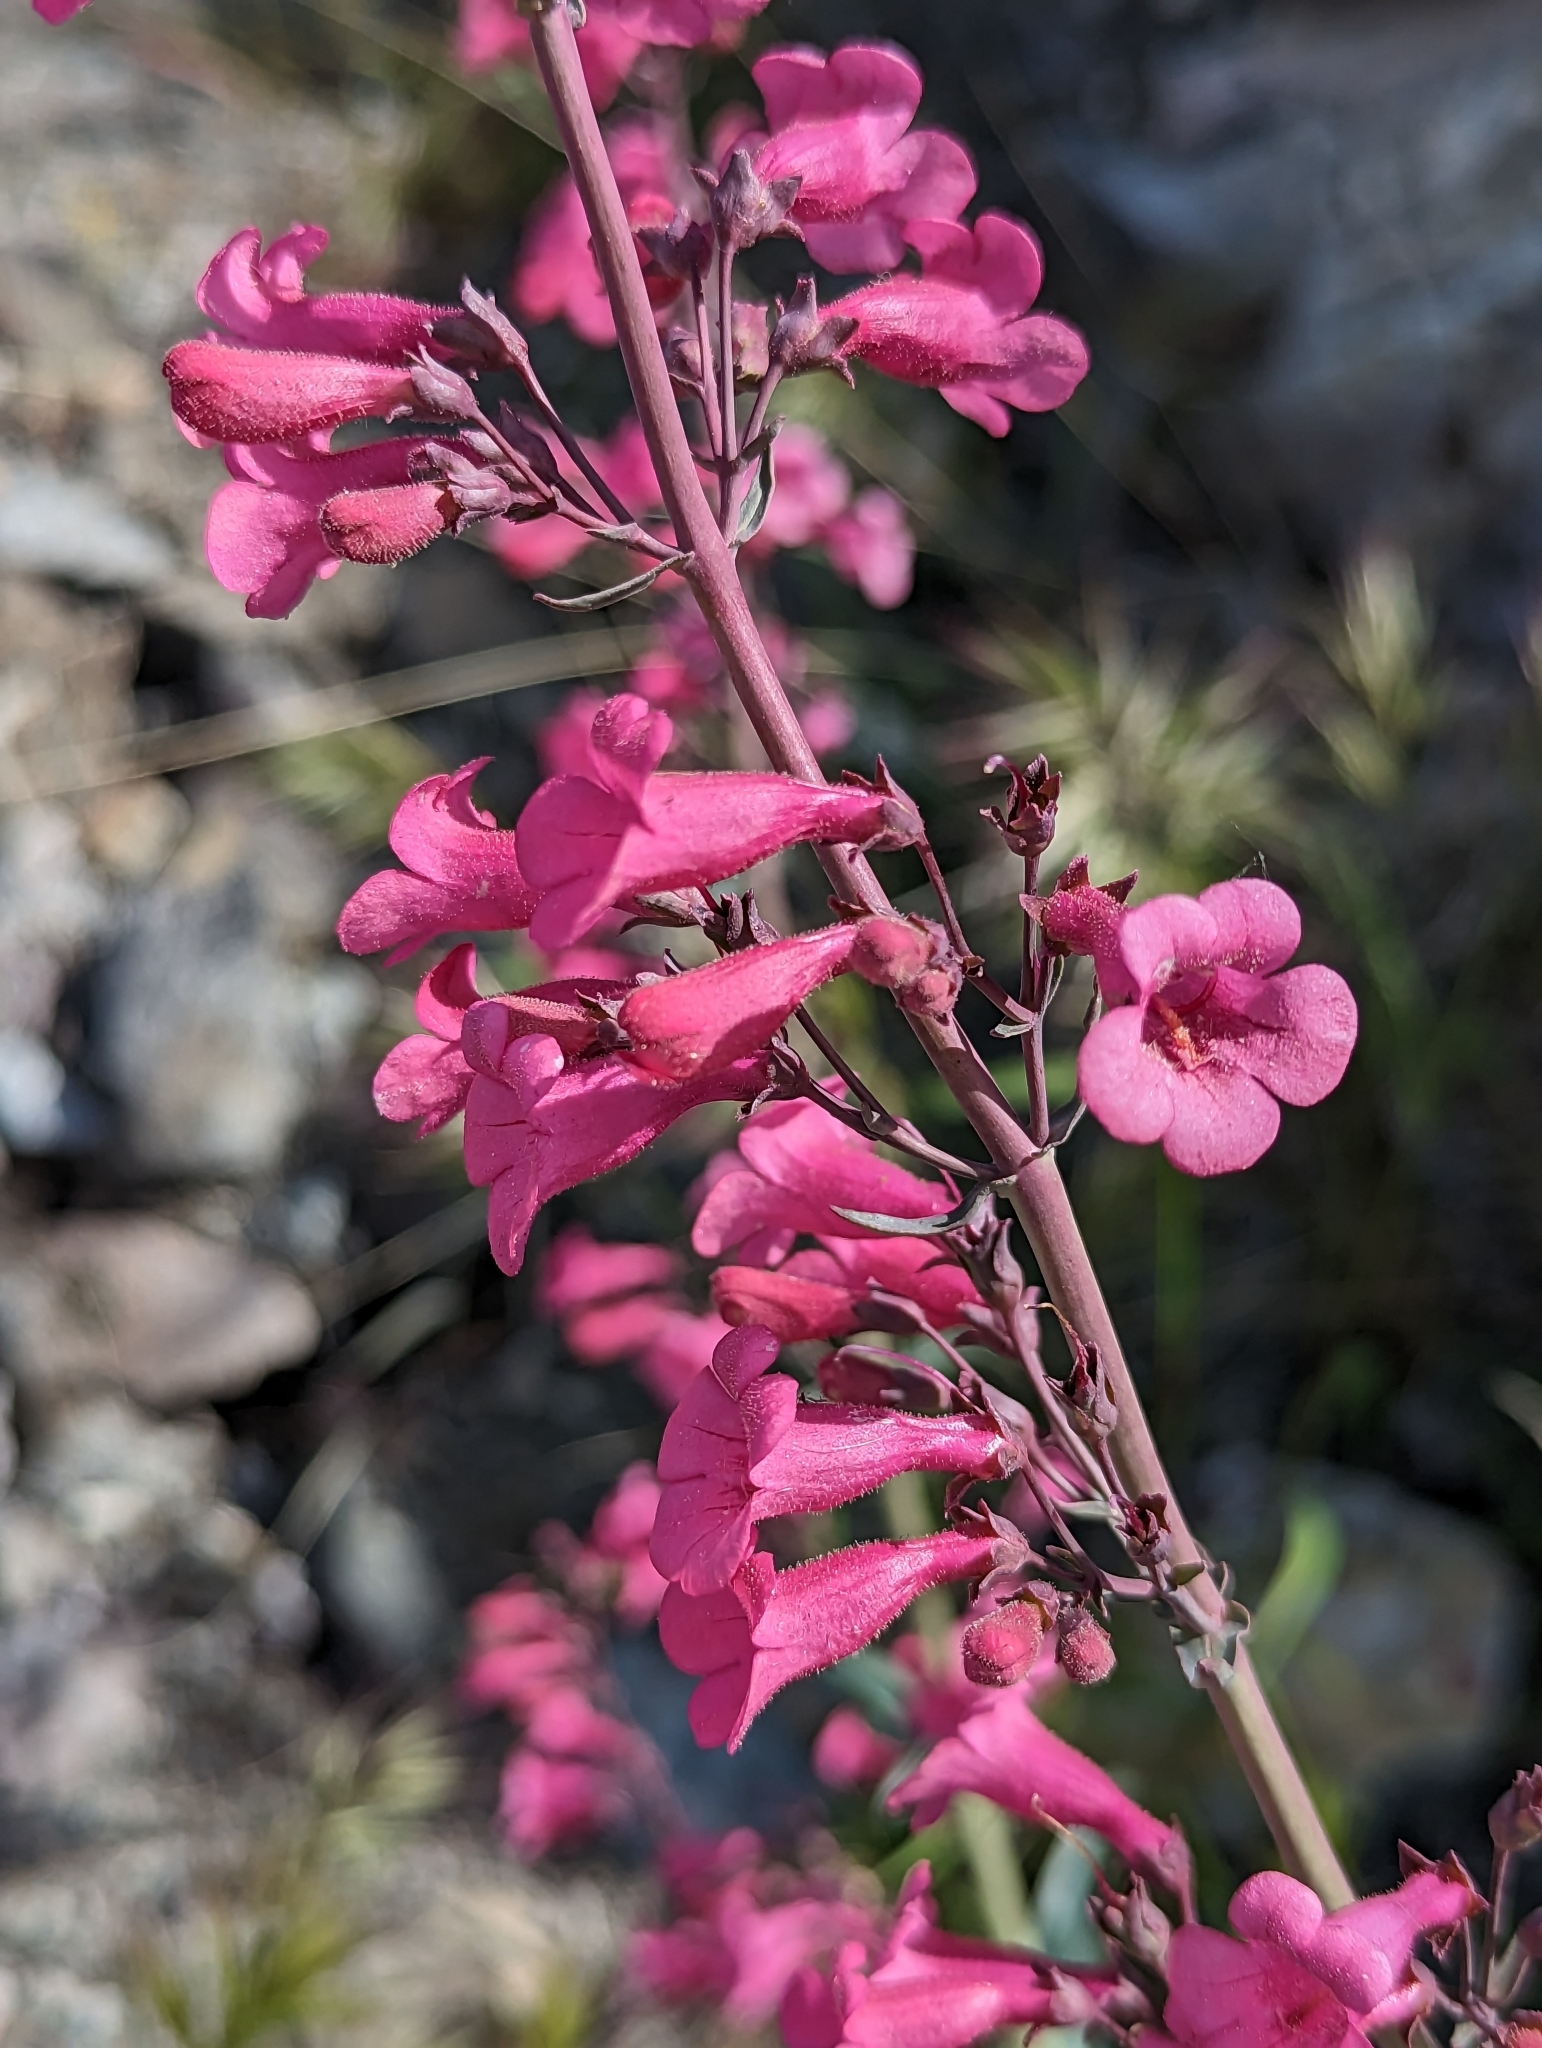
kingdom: Plantae
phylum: Tracheophyta
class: Magnoliopsida
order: Lamiales
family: Plantaginaceae
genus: Penstemon
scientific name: Penstemon parryi
